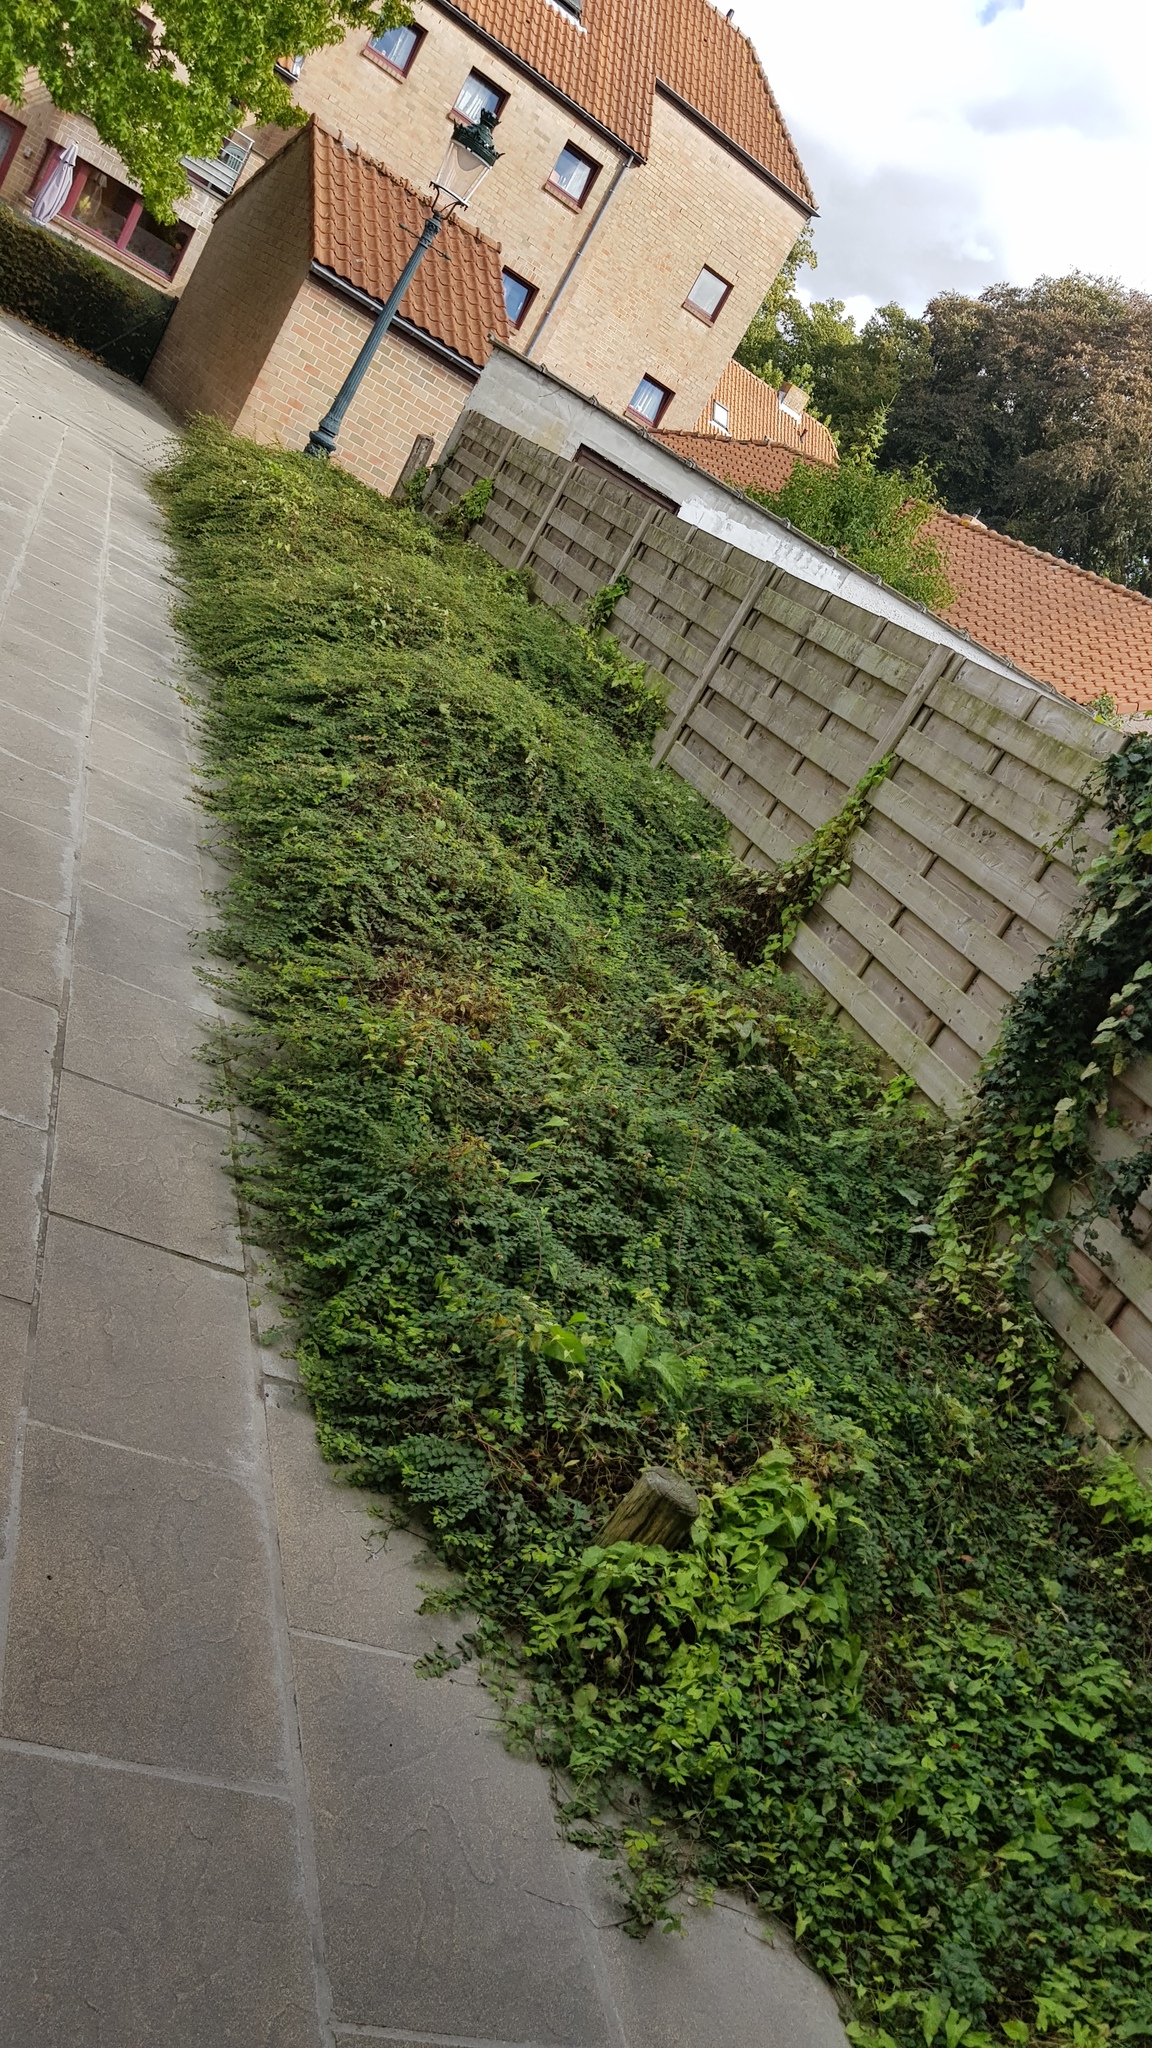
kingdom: Animalia
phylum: Arthropoda
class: Insecta
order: Hymenoptera
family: Vespidae
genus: Vespa
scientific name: Vespa velutina
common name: Asian hornet
